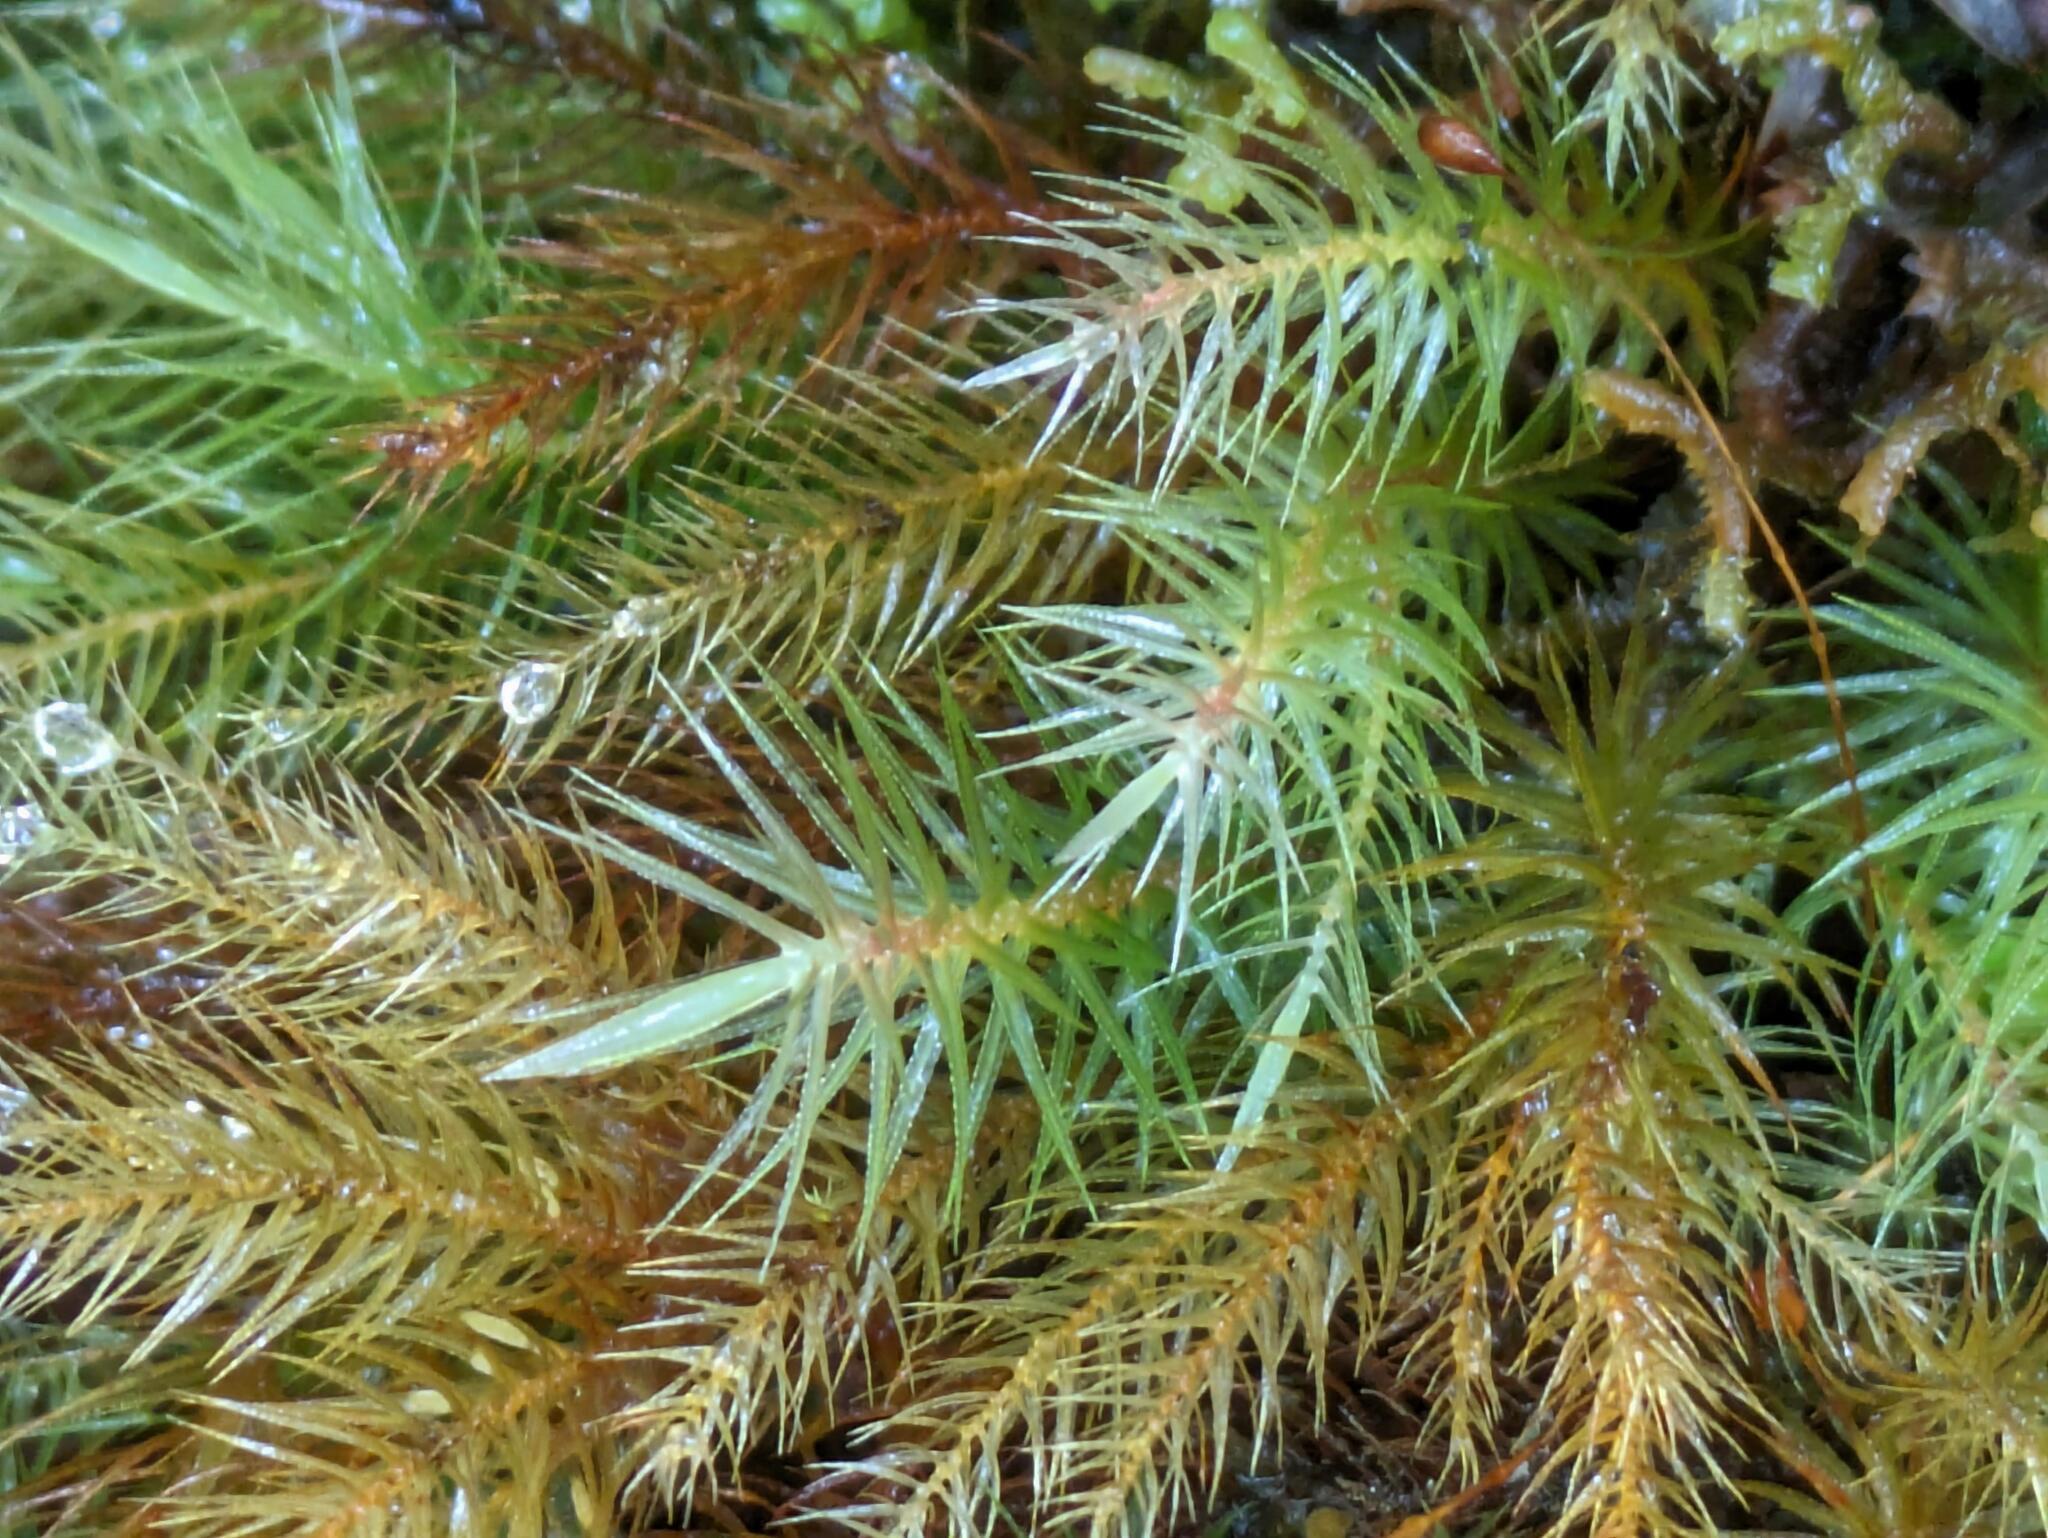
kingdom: Plantae
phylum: Bryophyta
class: Bryopsida
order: Rhizogoniales
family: Calomniaceae
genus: Pyrrhobryum
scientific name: Pyrrhobryum spiniforme
